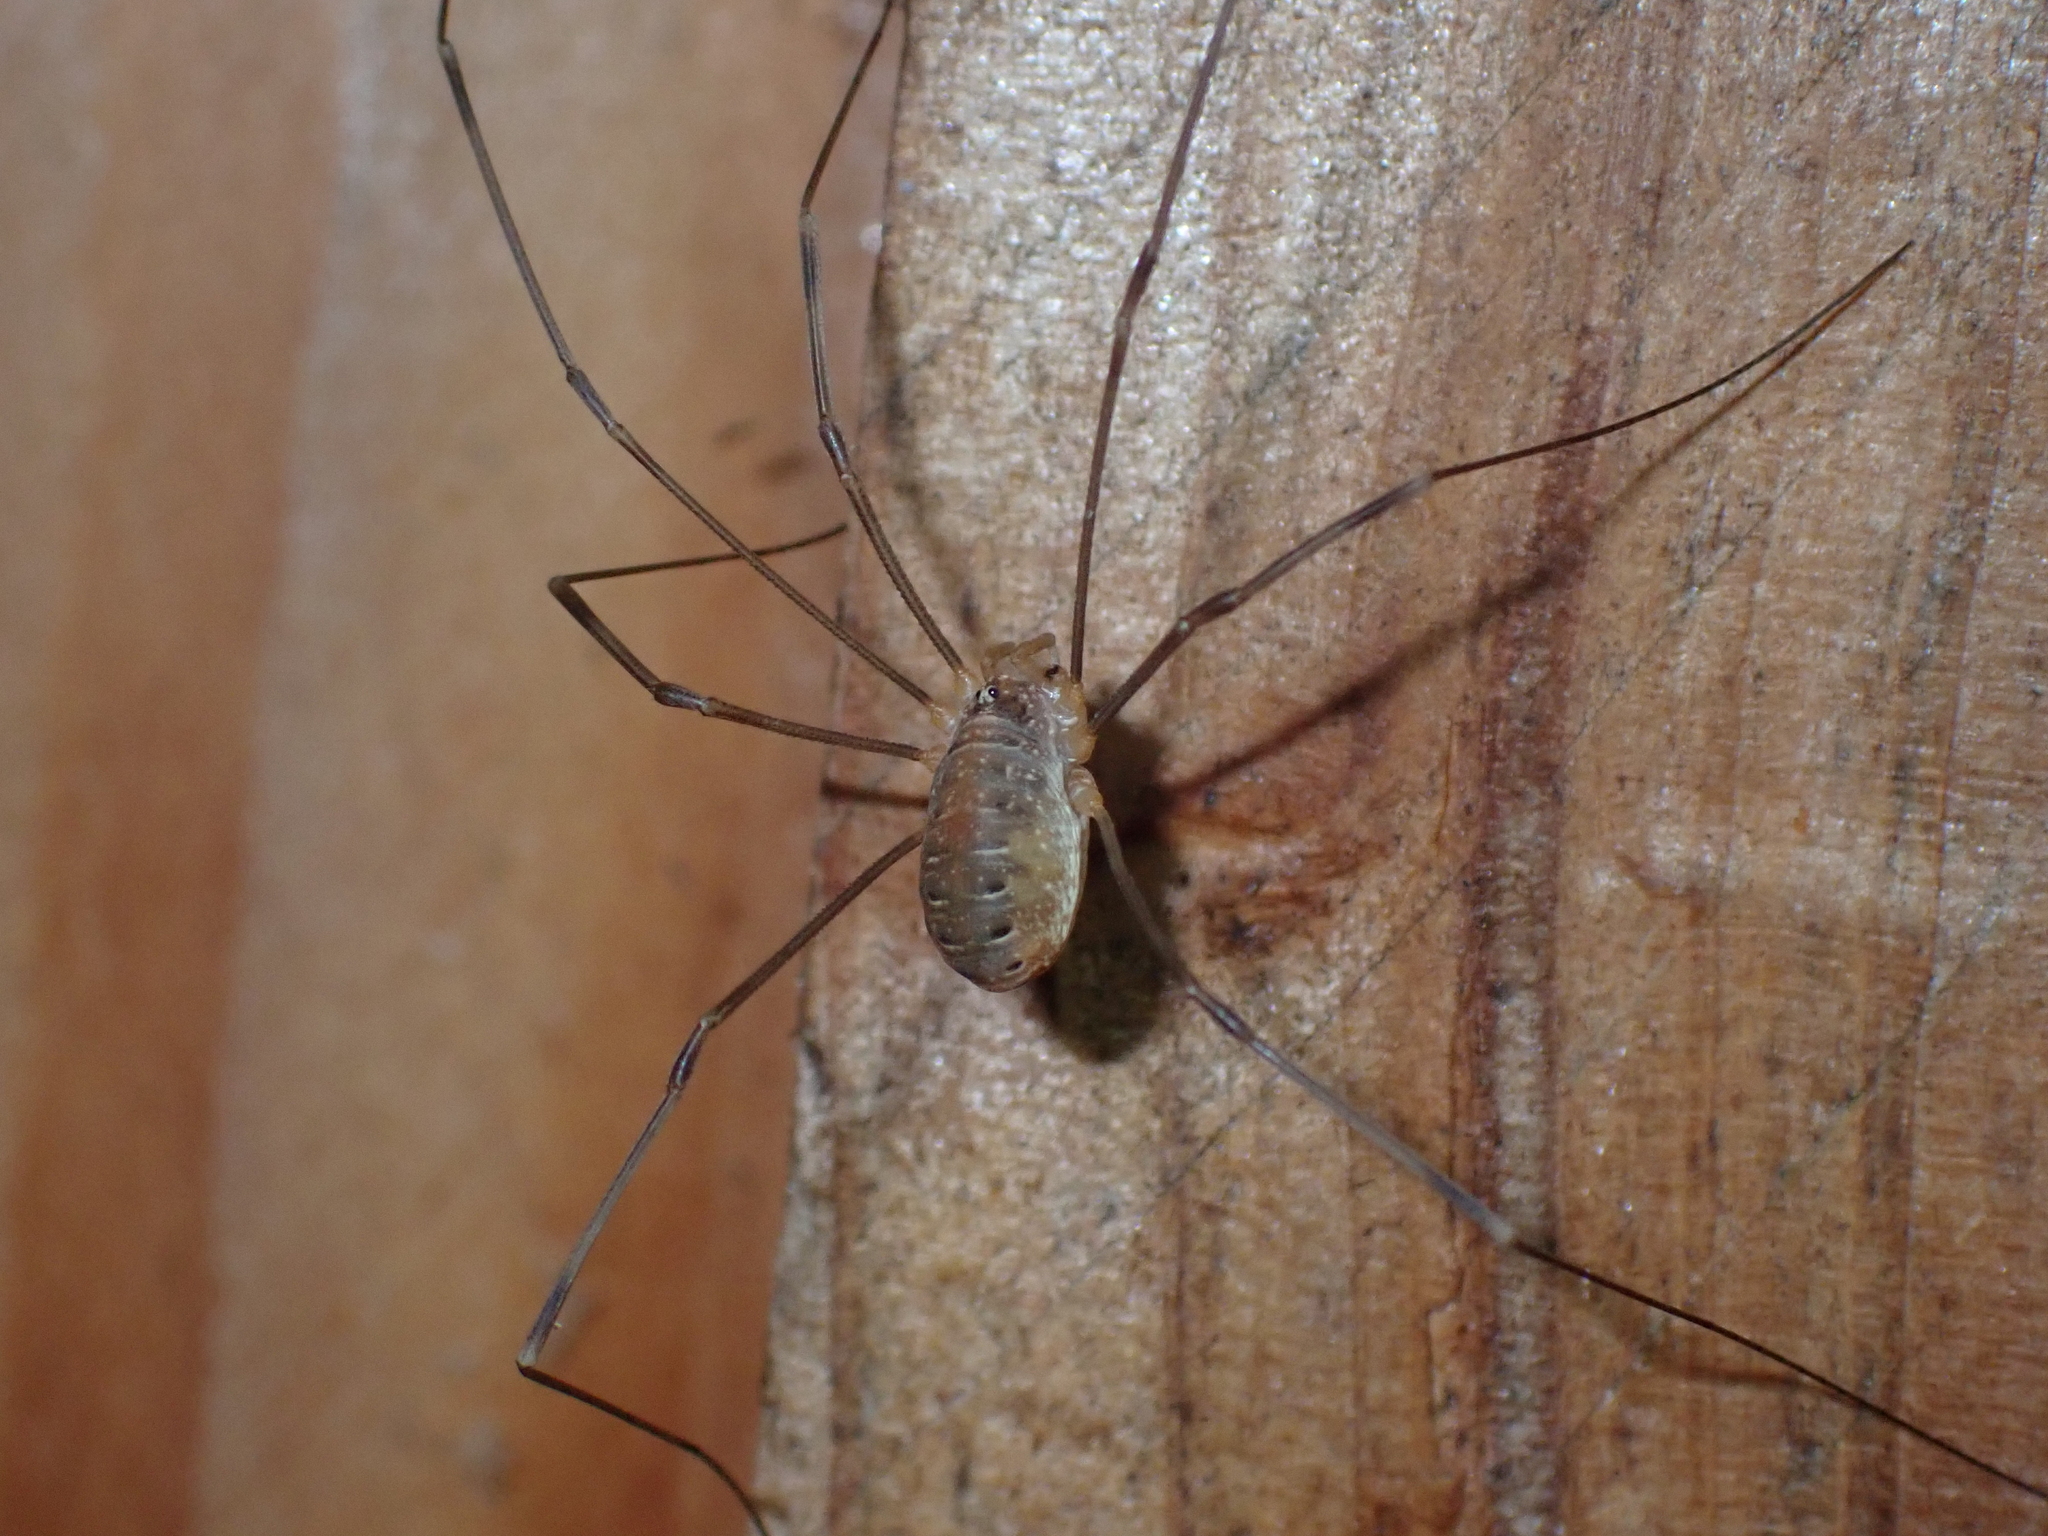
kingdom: Animalia
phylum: Arthropoda
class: Arachnida
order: Opiliones
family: Phalangiidae
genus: Opilio
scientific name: Opilio canestrinii
